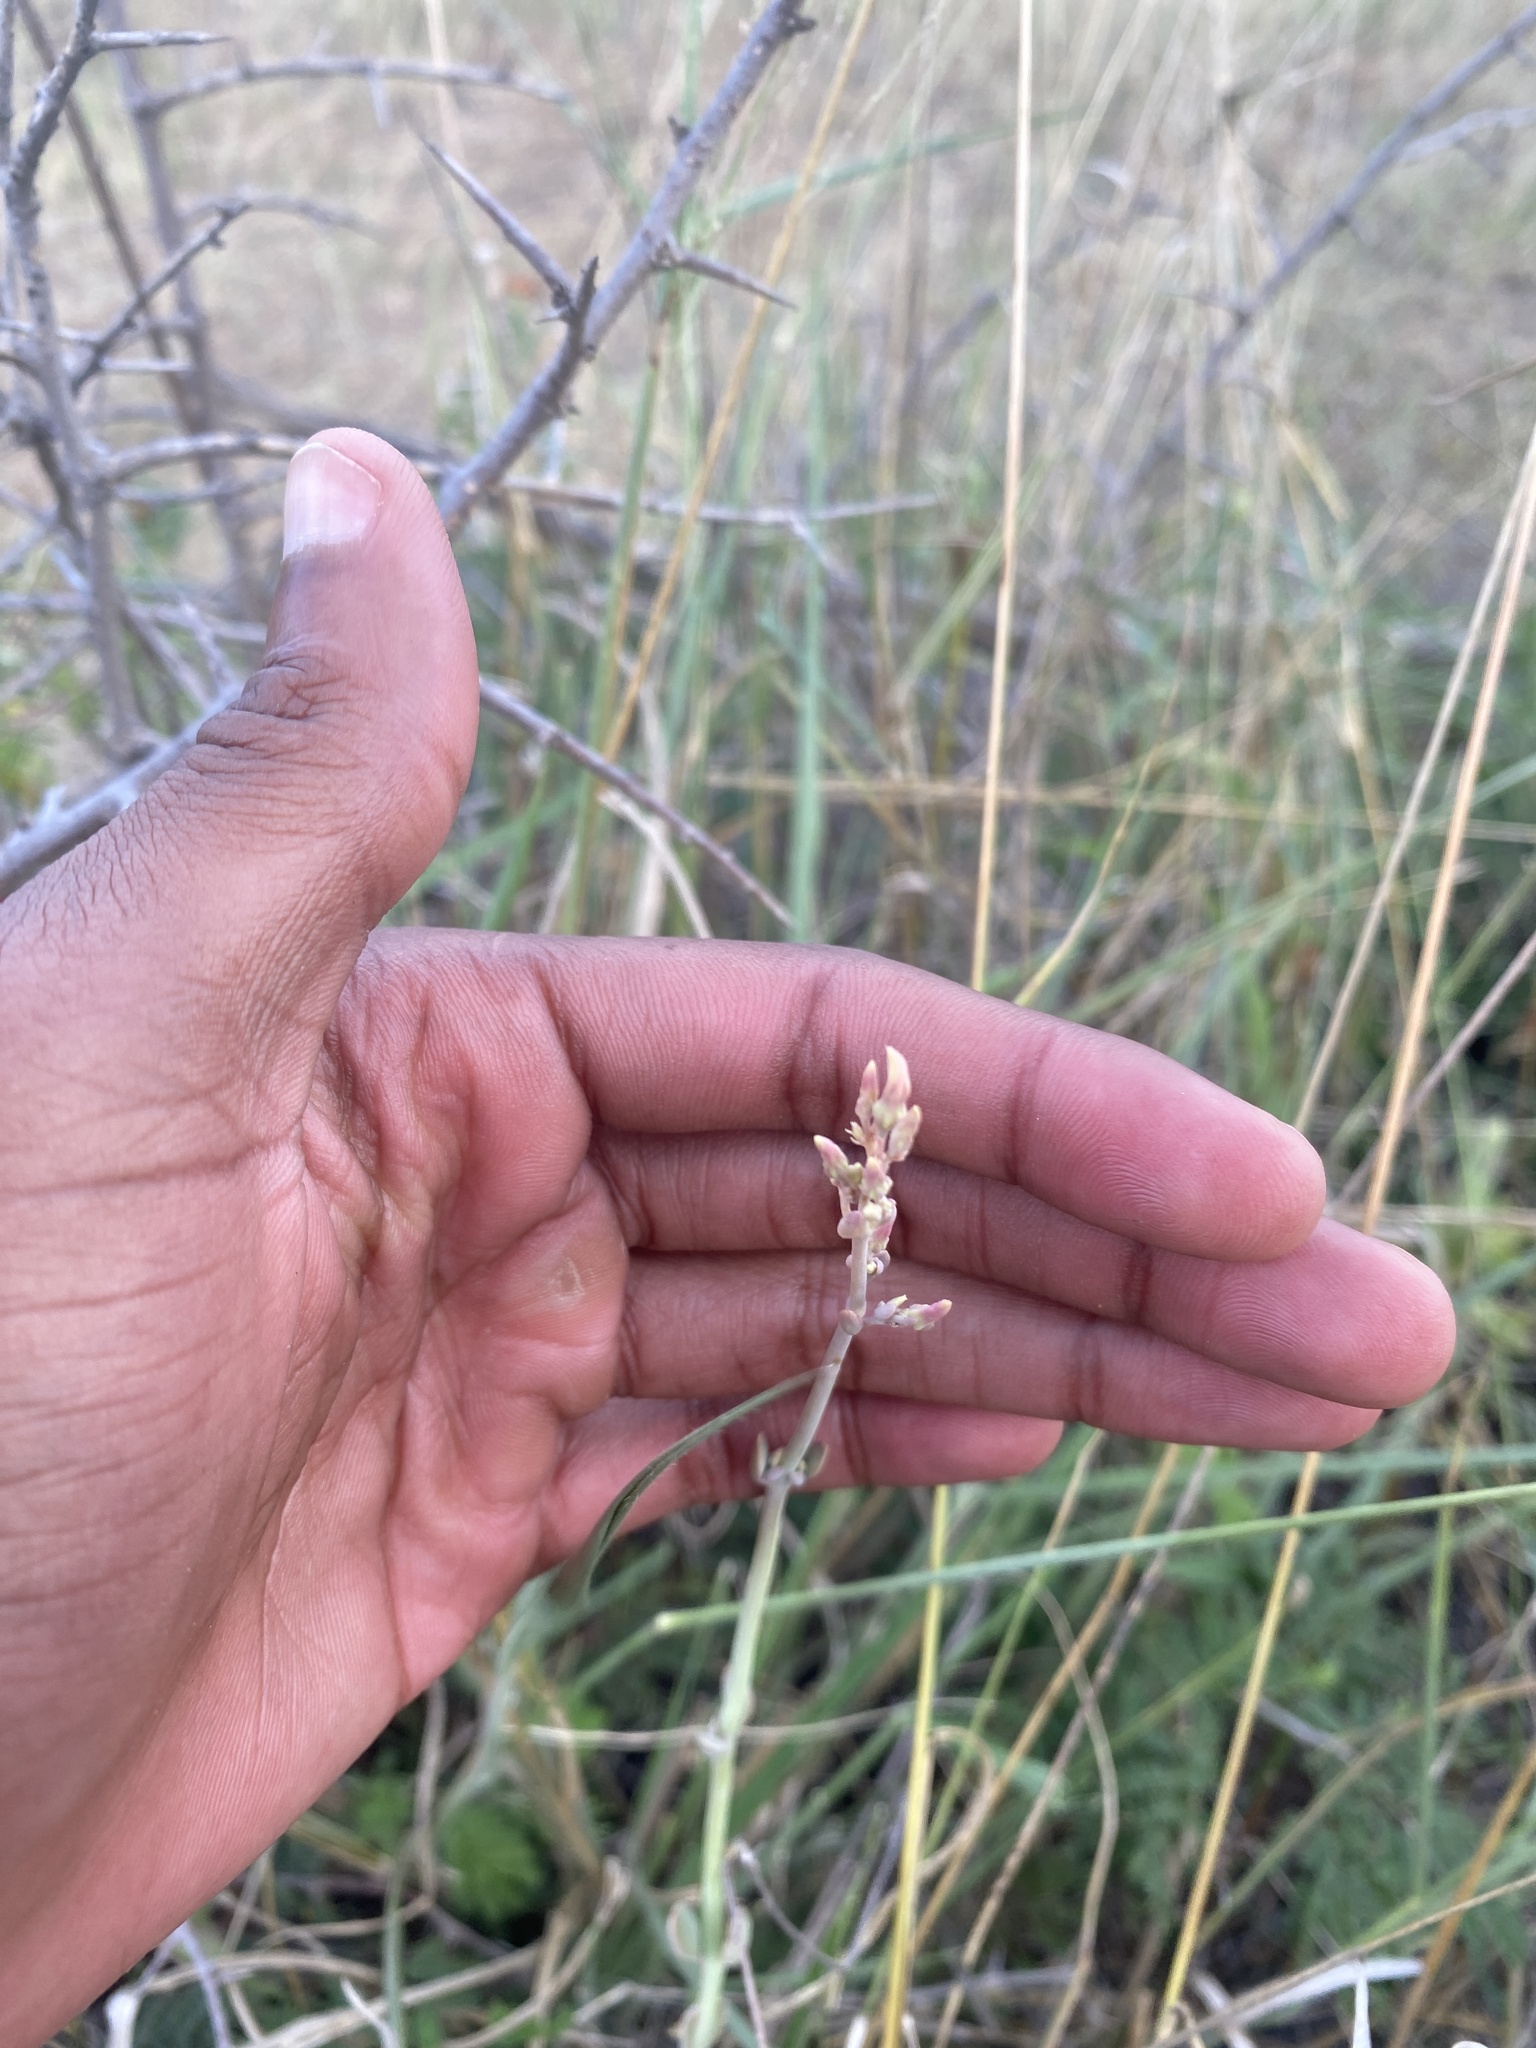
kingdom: Plantae
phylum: Tracheophyta
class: Magnoliopsida
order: Saxifragales
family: Crassulaceae
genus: Kalanchoe
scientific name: Kalanchoe rotundifolia
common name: Common kalanchoe
